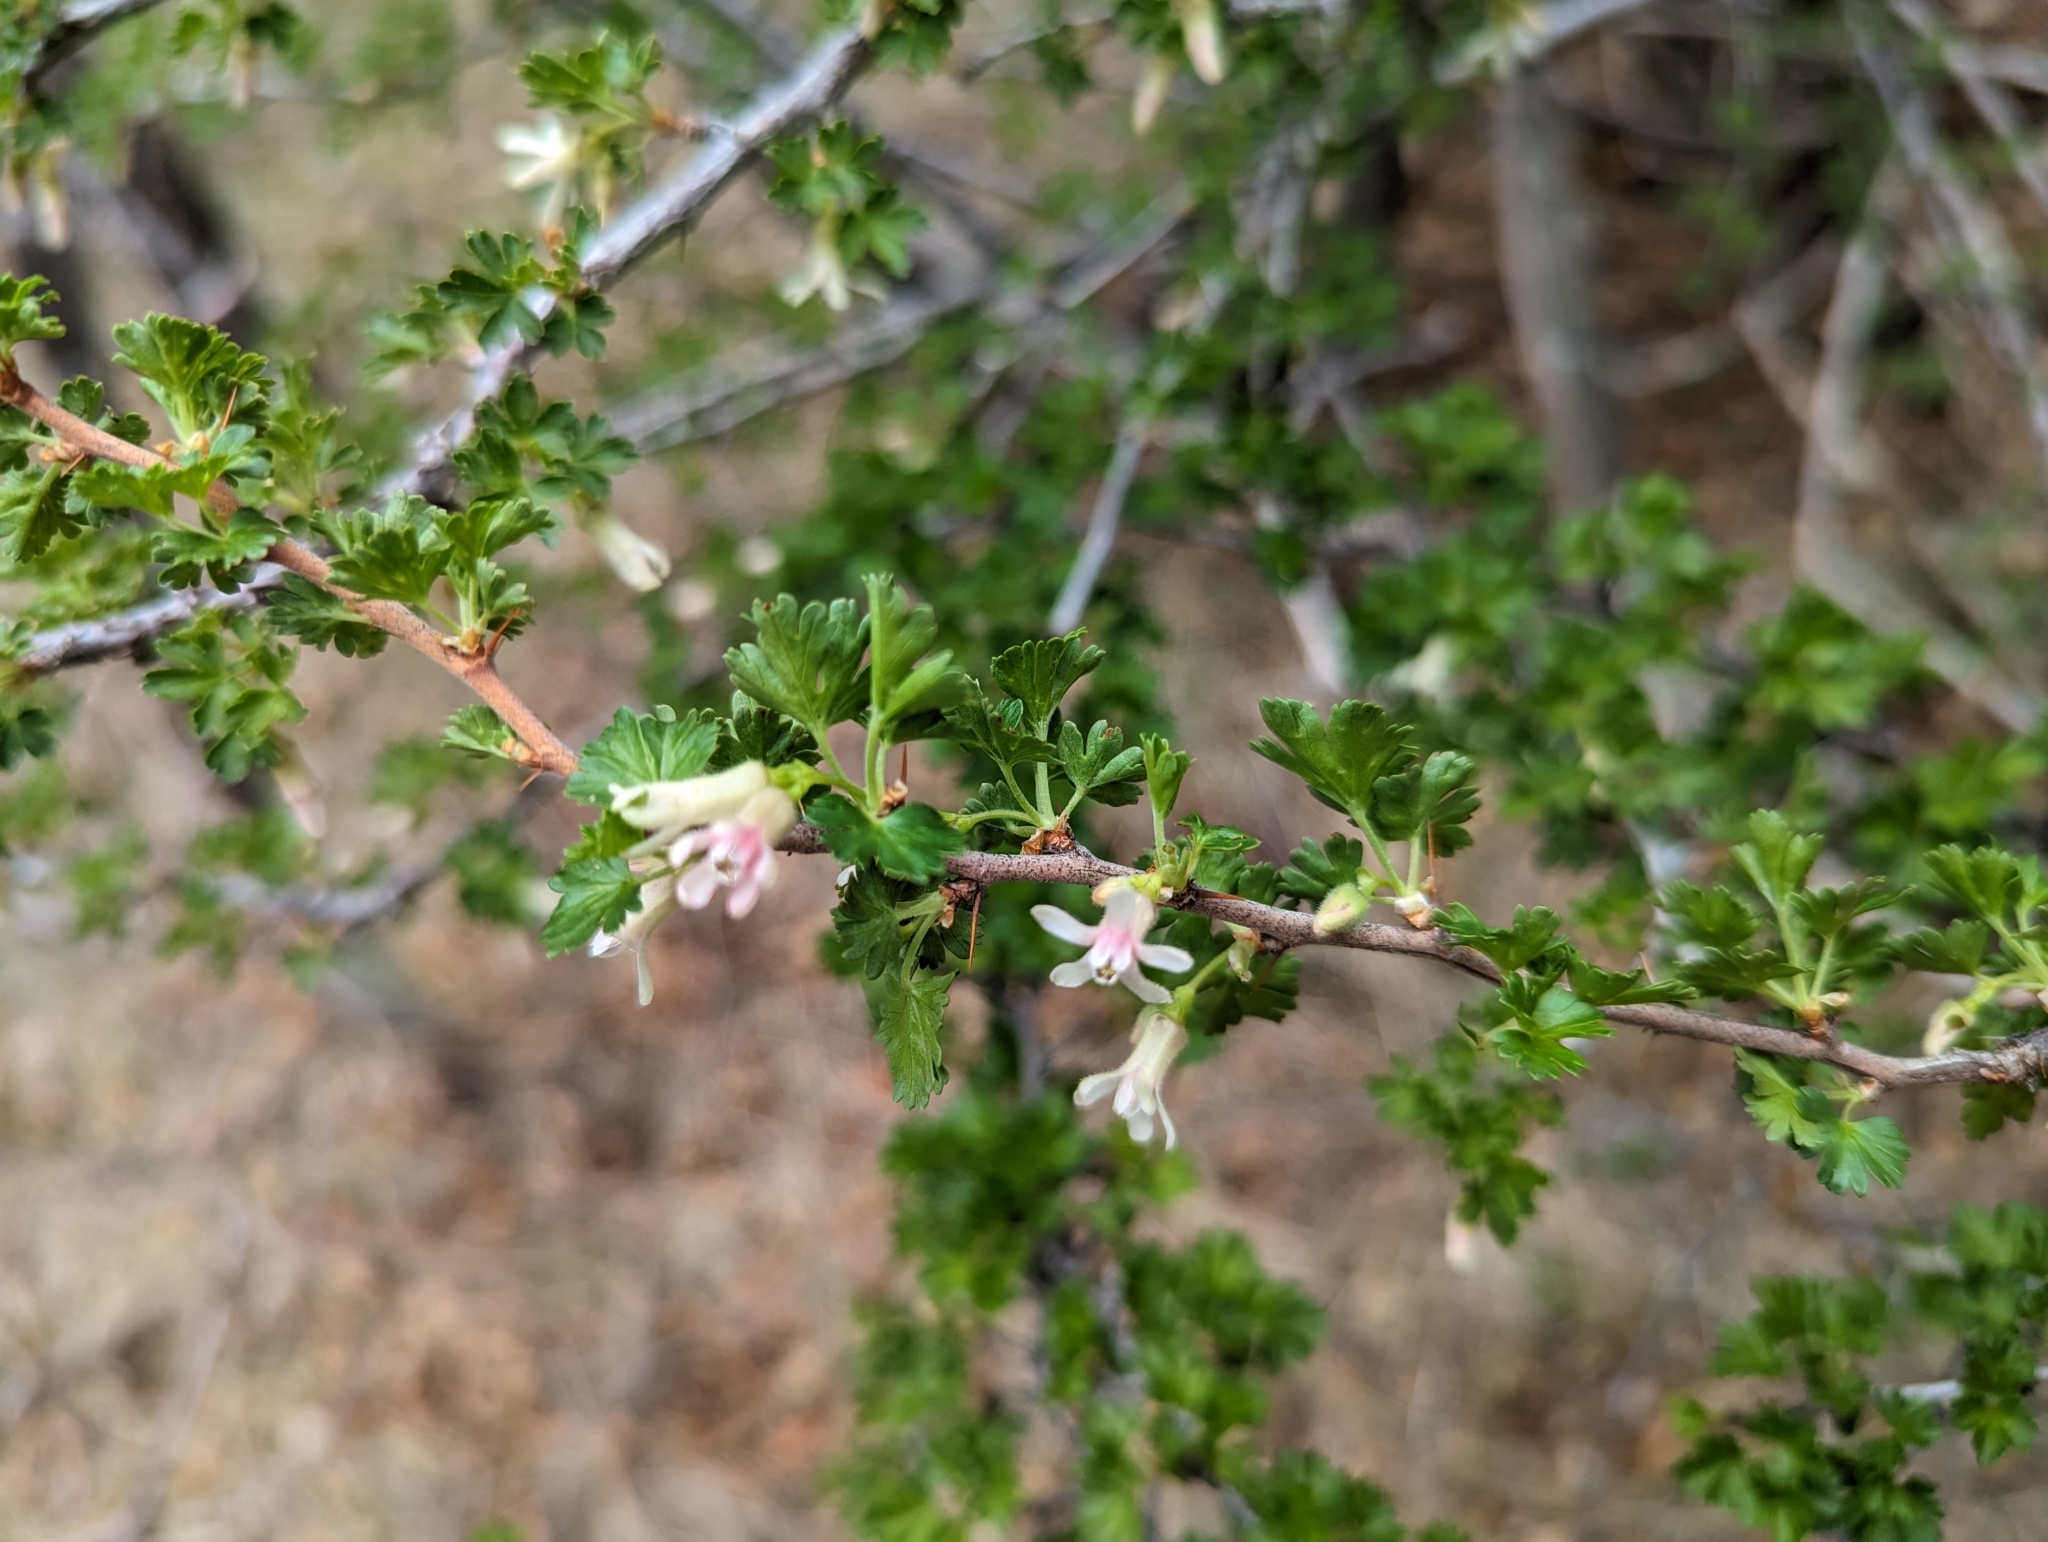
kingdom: Plantae
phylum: Tracheophyta
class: Magnoliopsida
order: Saxifragales
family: Grossulariaceae
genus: Ribes
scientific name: Ribes leptanthum
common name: Trumpet gooseberry
